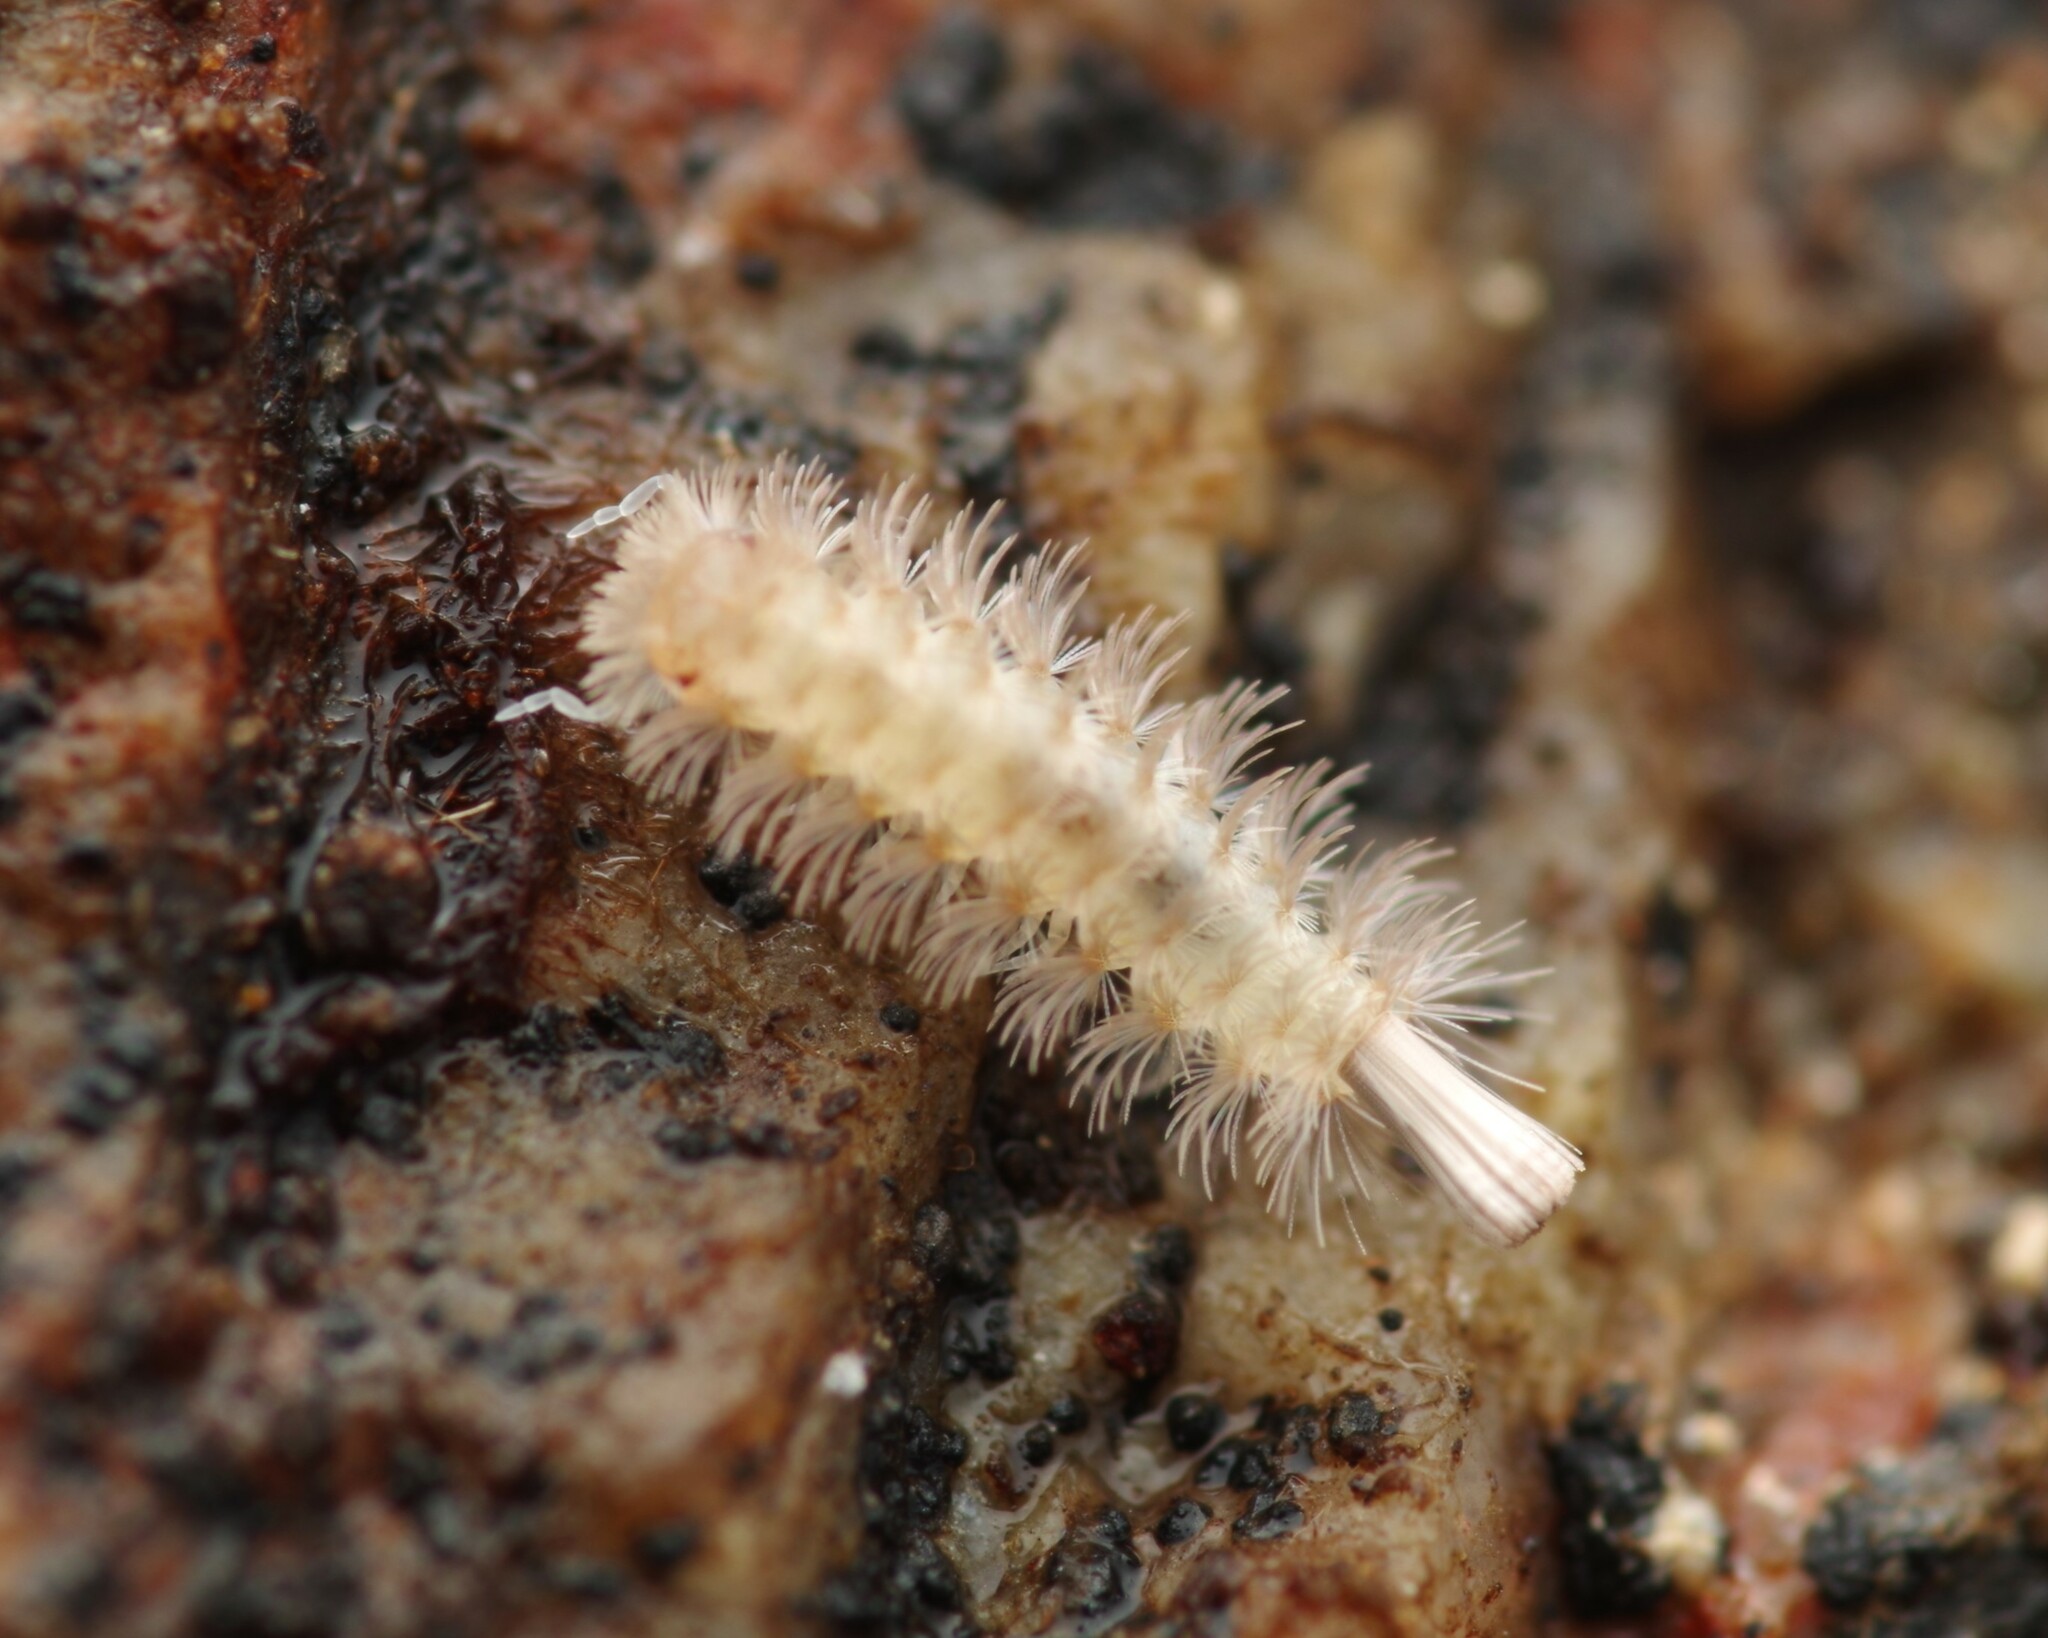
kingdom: Animalia
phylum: Arthropoda
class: Diplopoda
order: Polyxenida
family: Lophoproctidae
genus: Lophoproctus
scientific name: Lophoproctus lucidus
